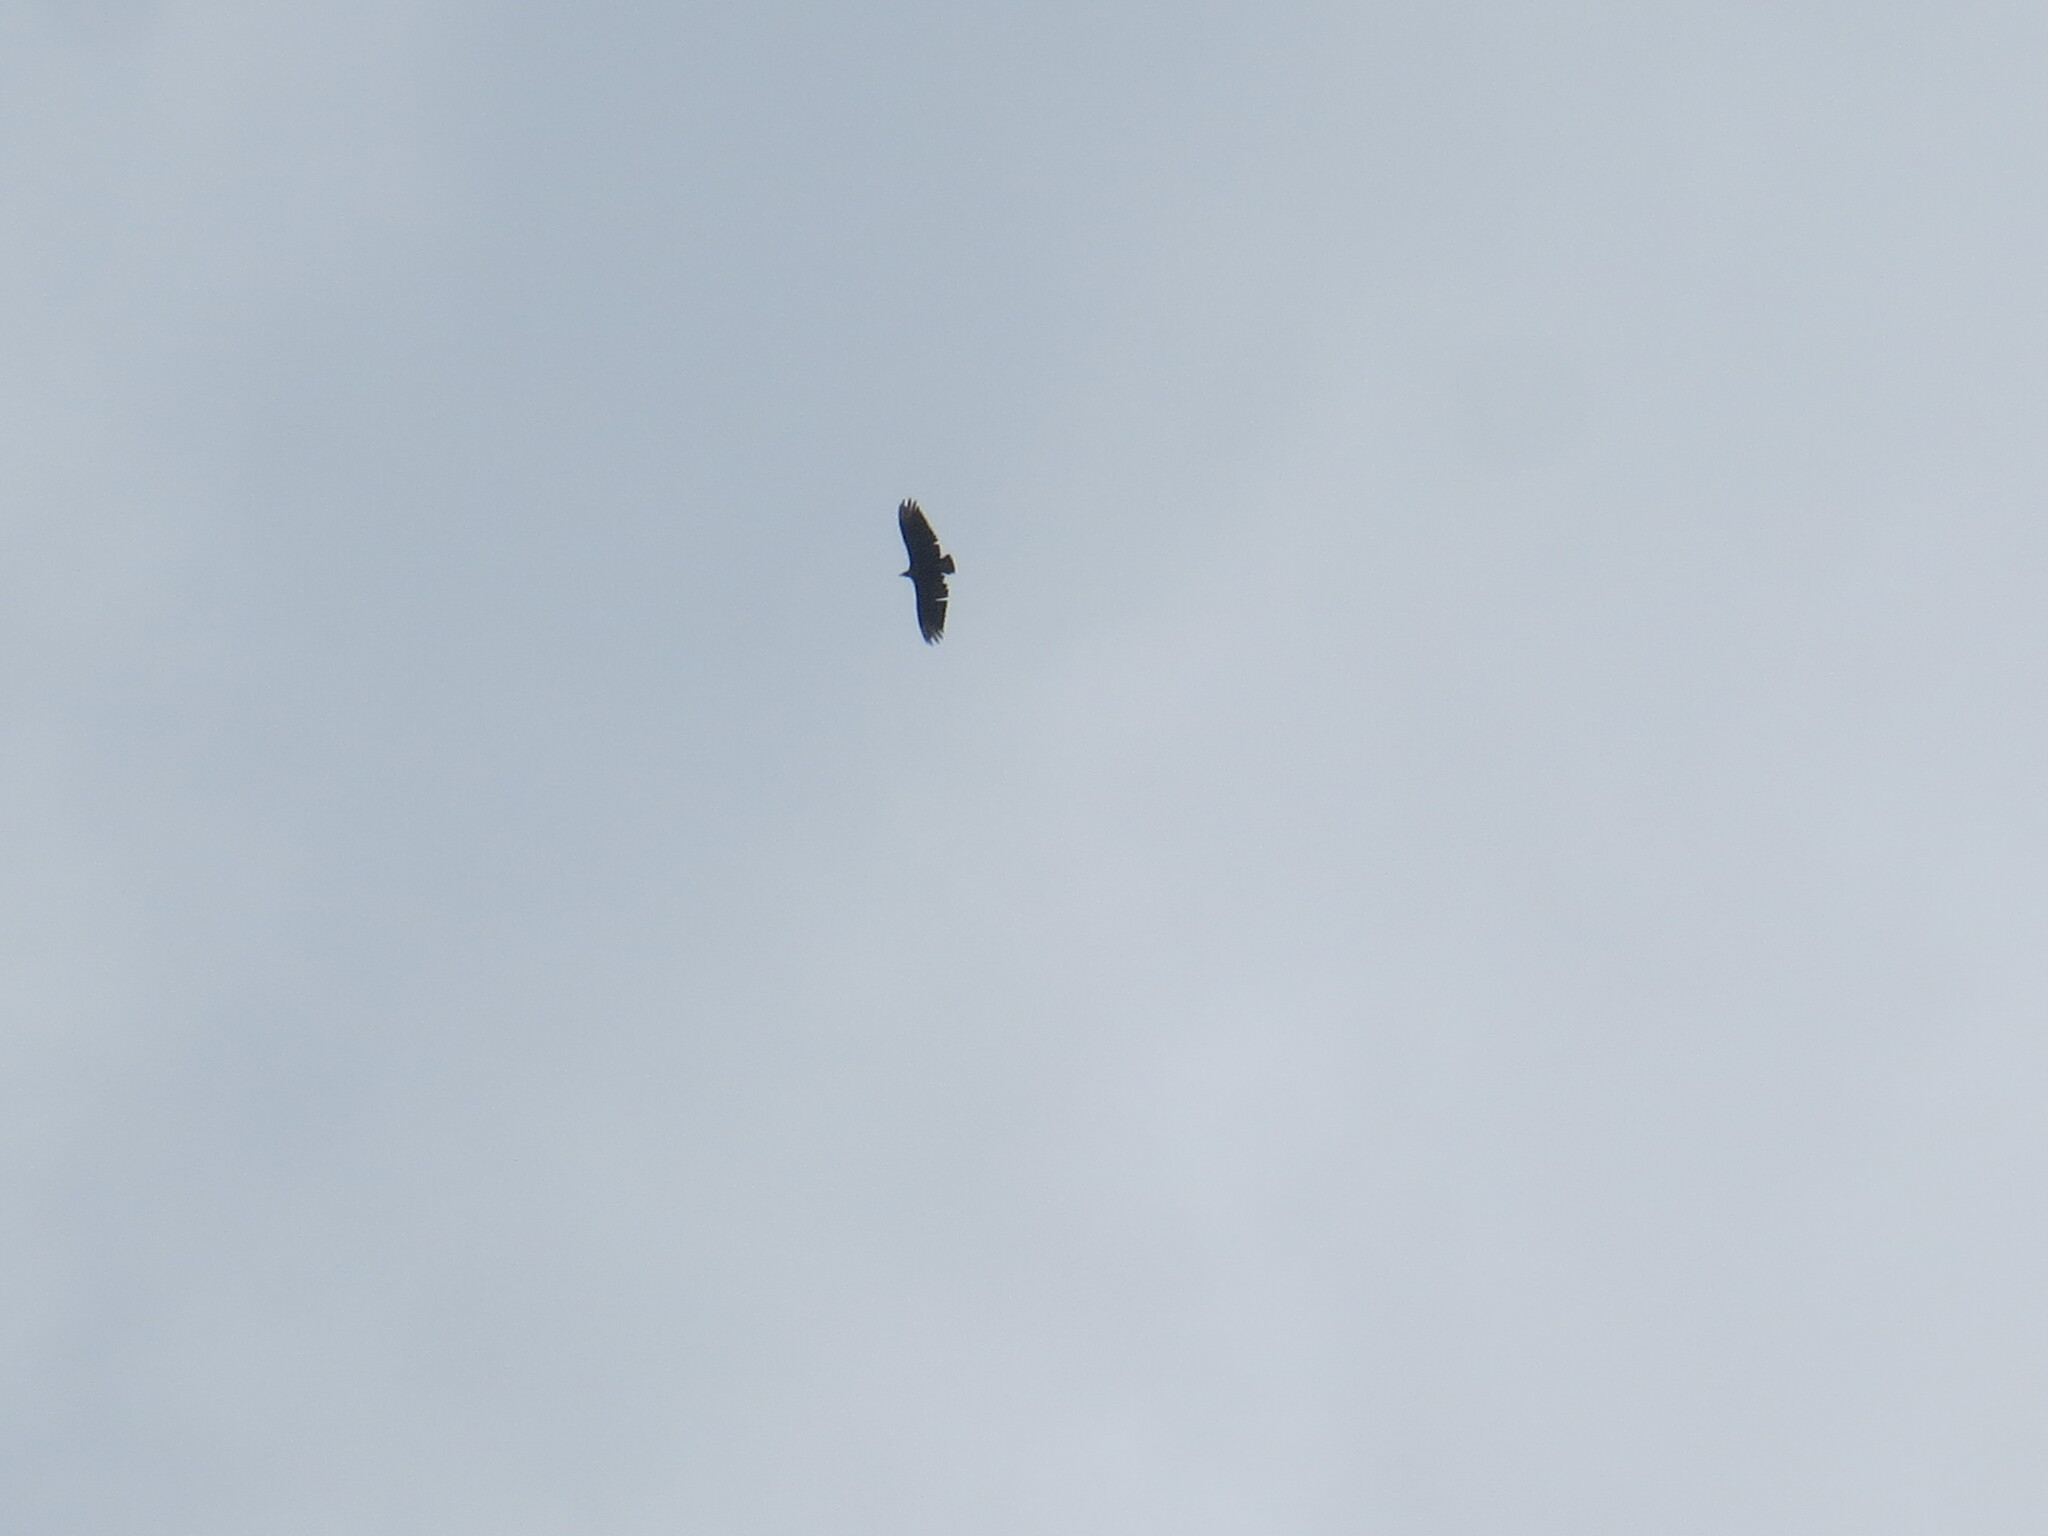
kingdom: Animalia
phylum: Chordata
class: Aves
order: Accipitriformes
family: Cathartidae
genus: Coragyps
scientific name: Coragyps atratus
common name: Black vulture
